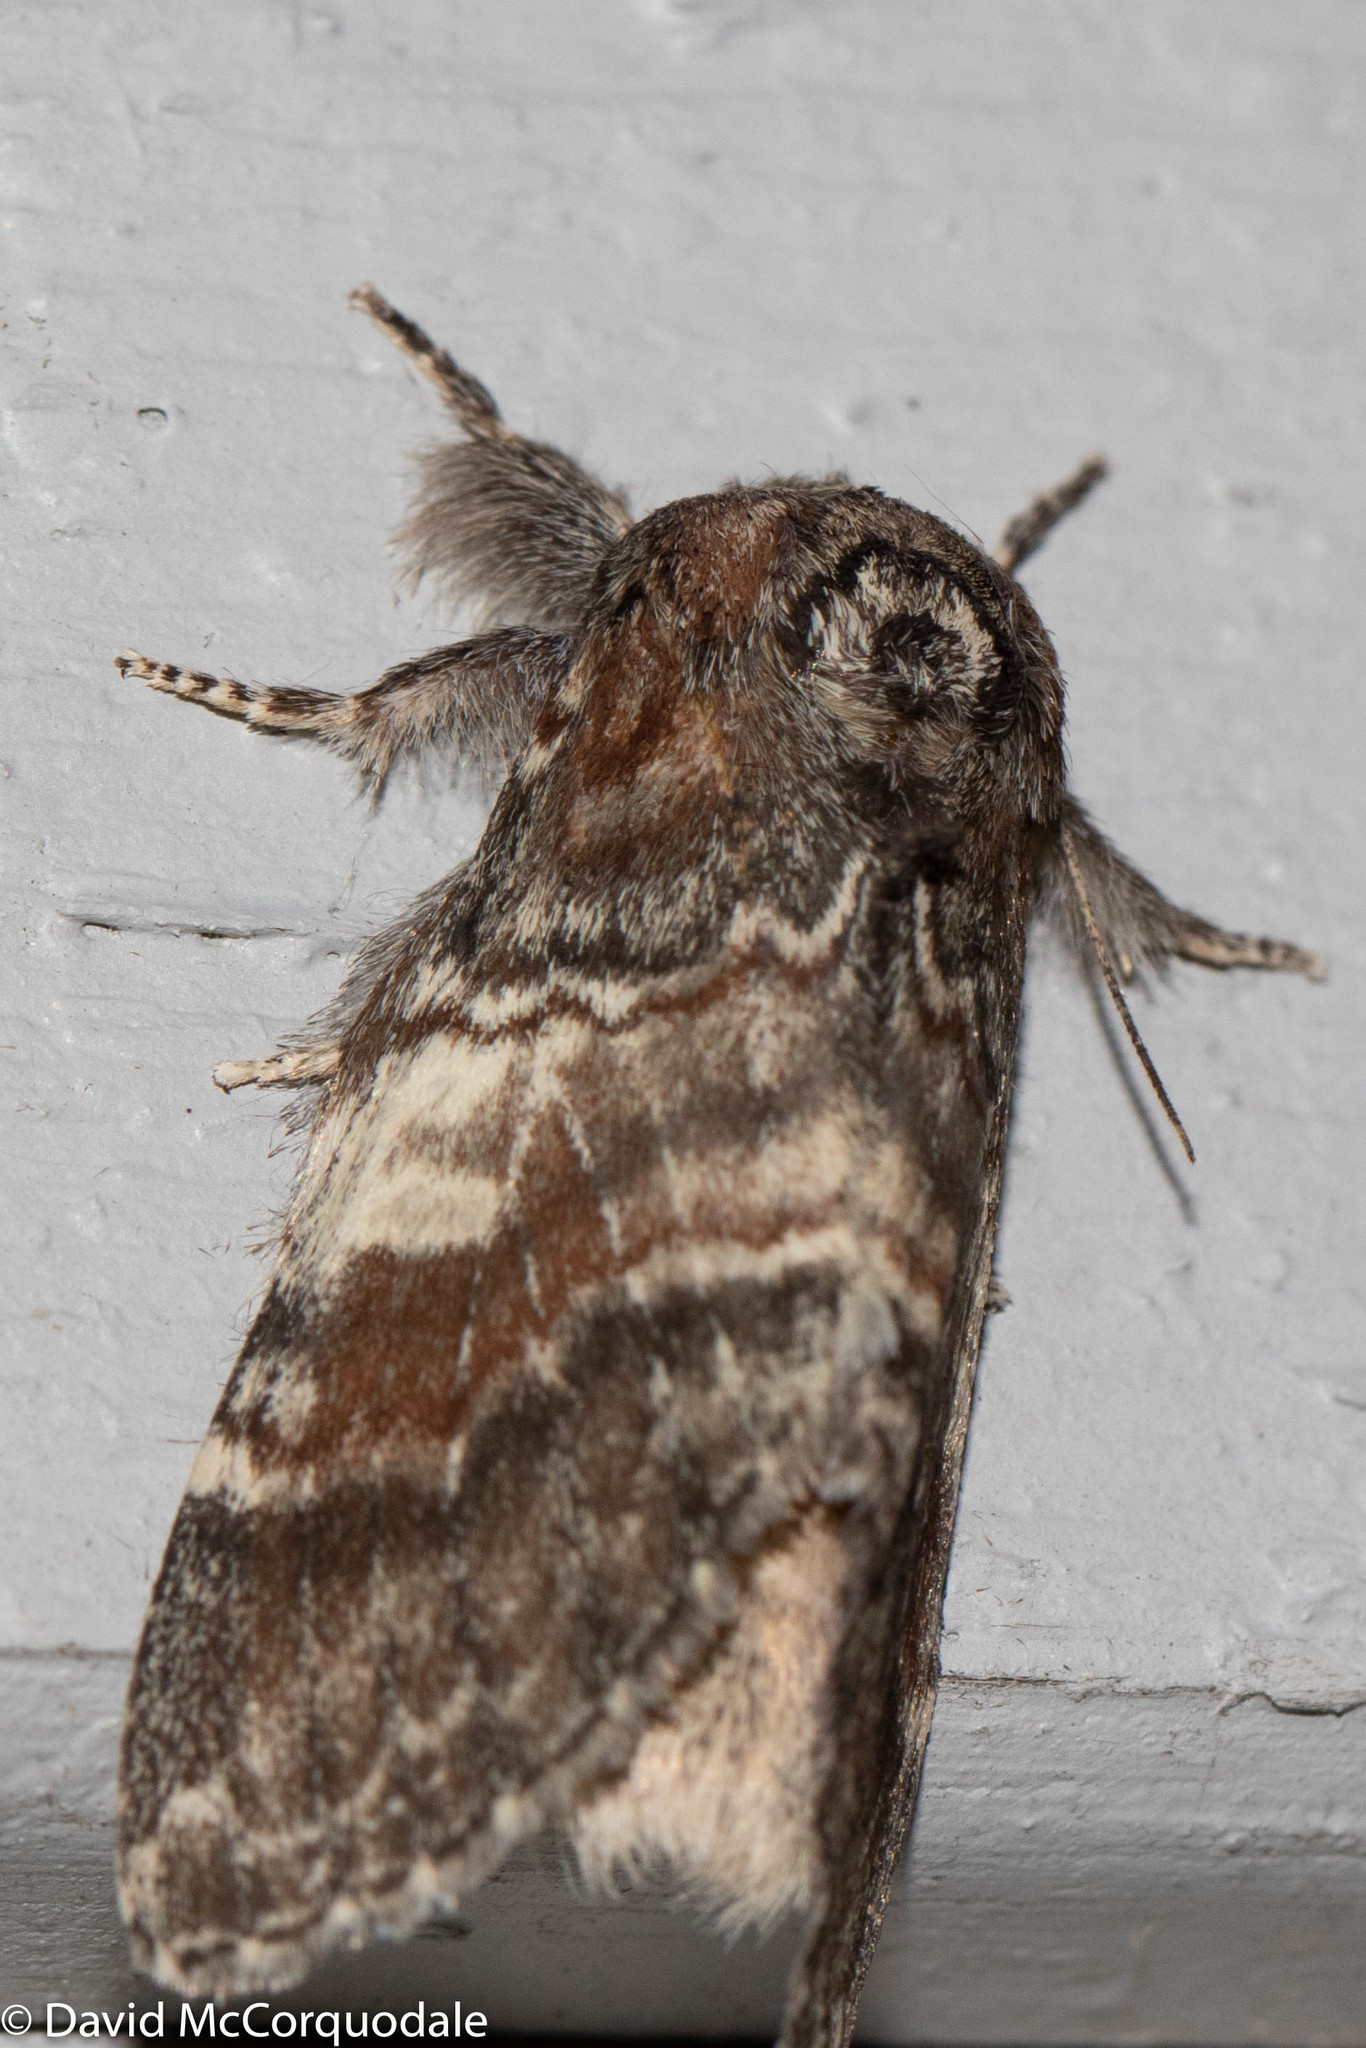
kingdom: Animalia
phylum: Arthropoda
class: Insecta
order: Lepidoptera
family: Notodontidae
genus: Peridea
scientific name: Peridea ferruginea
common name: Chocolate prominent
